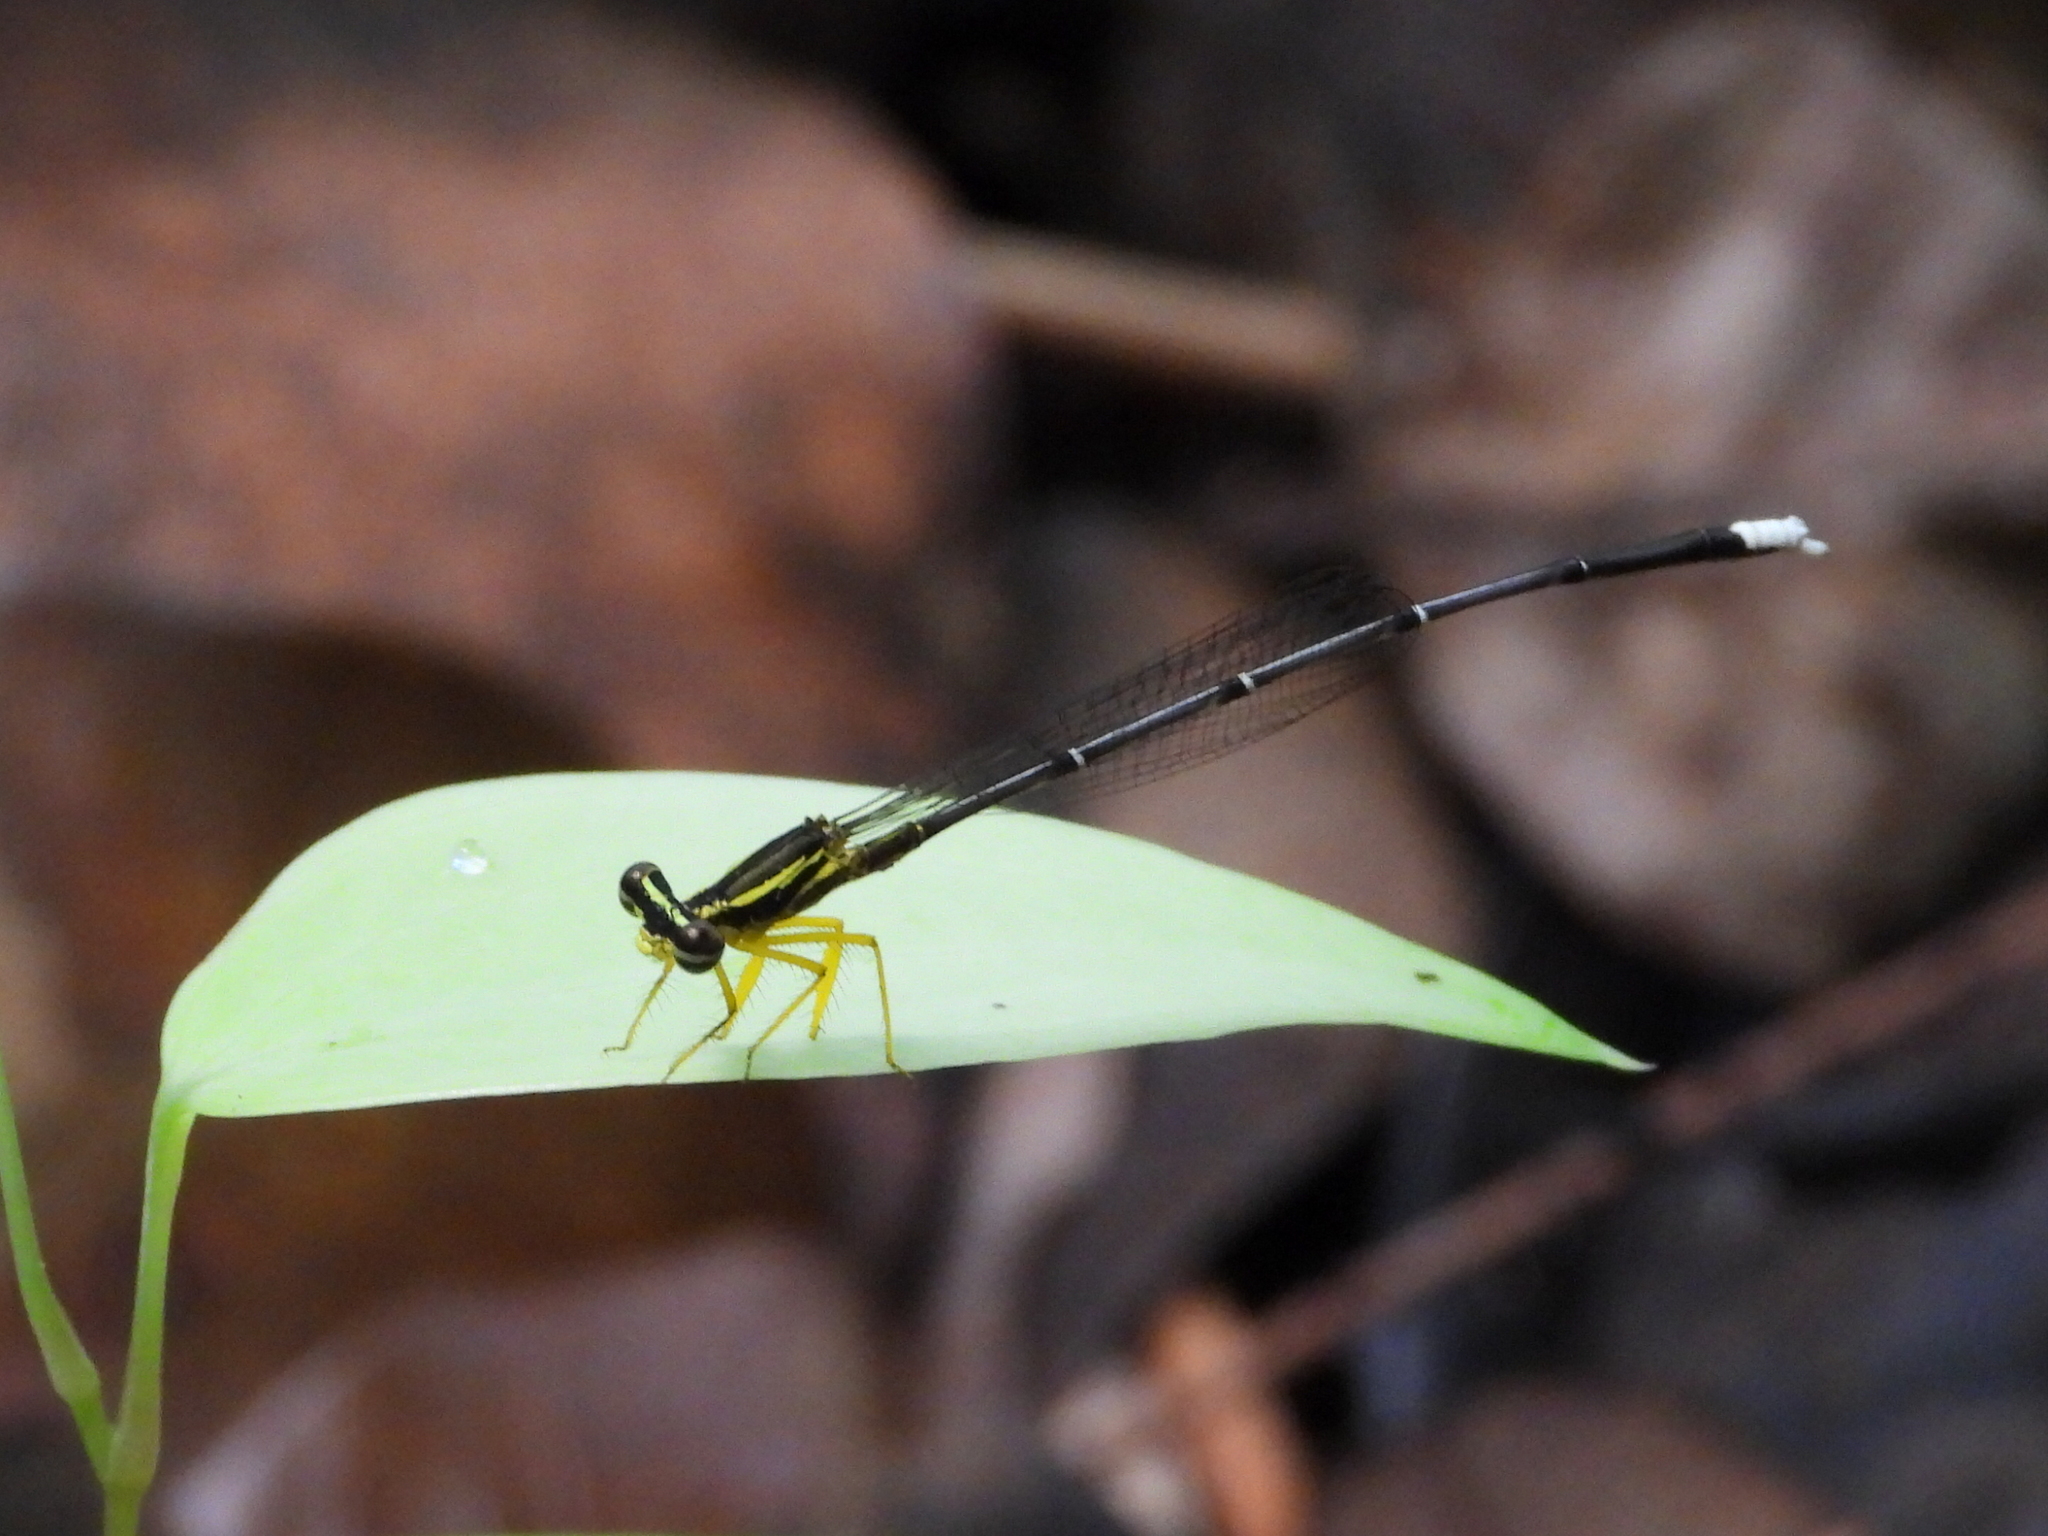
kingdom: Animalia
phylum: Arthropoda
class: Insecta
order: Odonata
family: Platycnemididae
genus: Copera
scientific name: Copera marginipes
